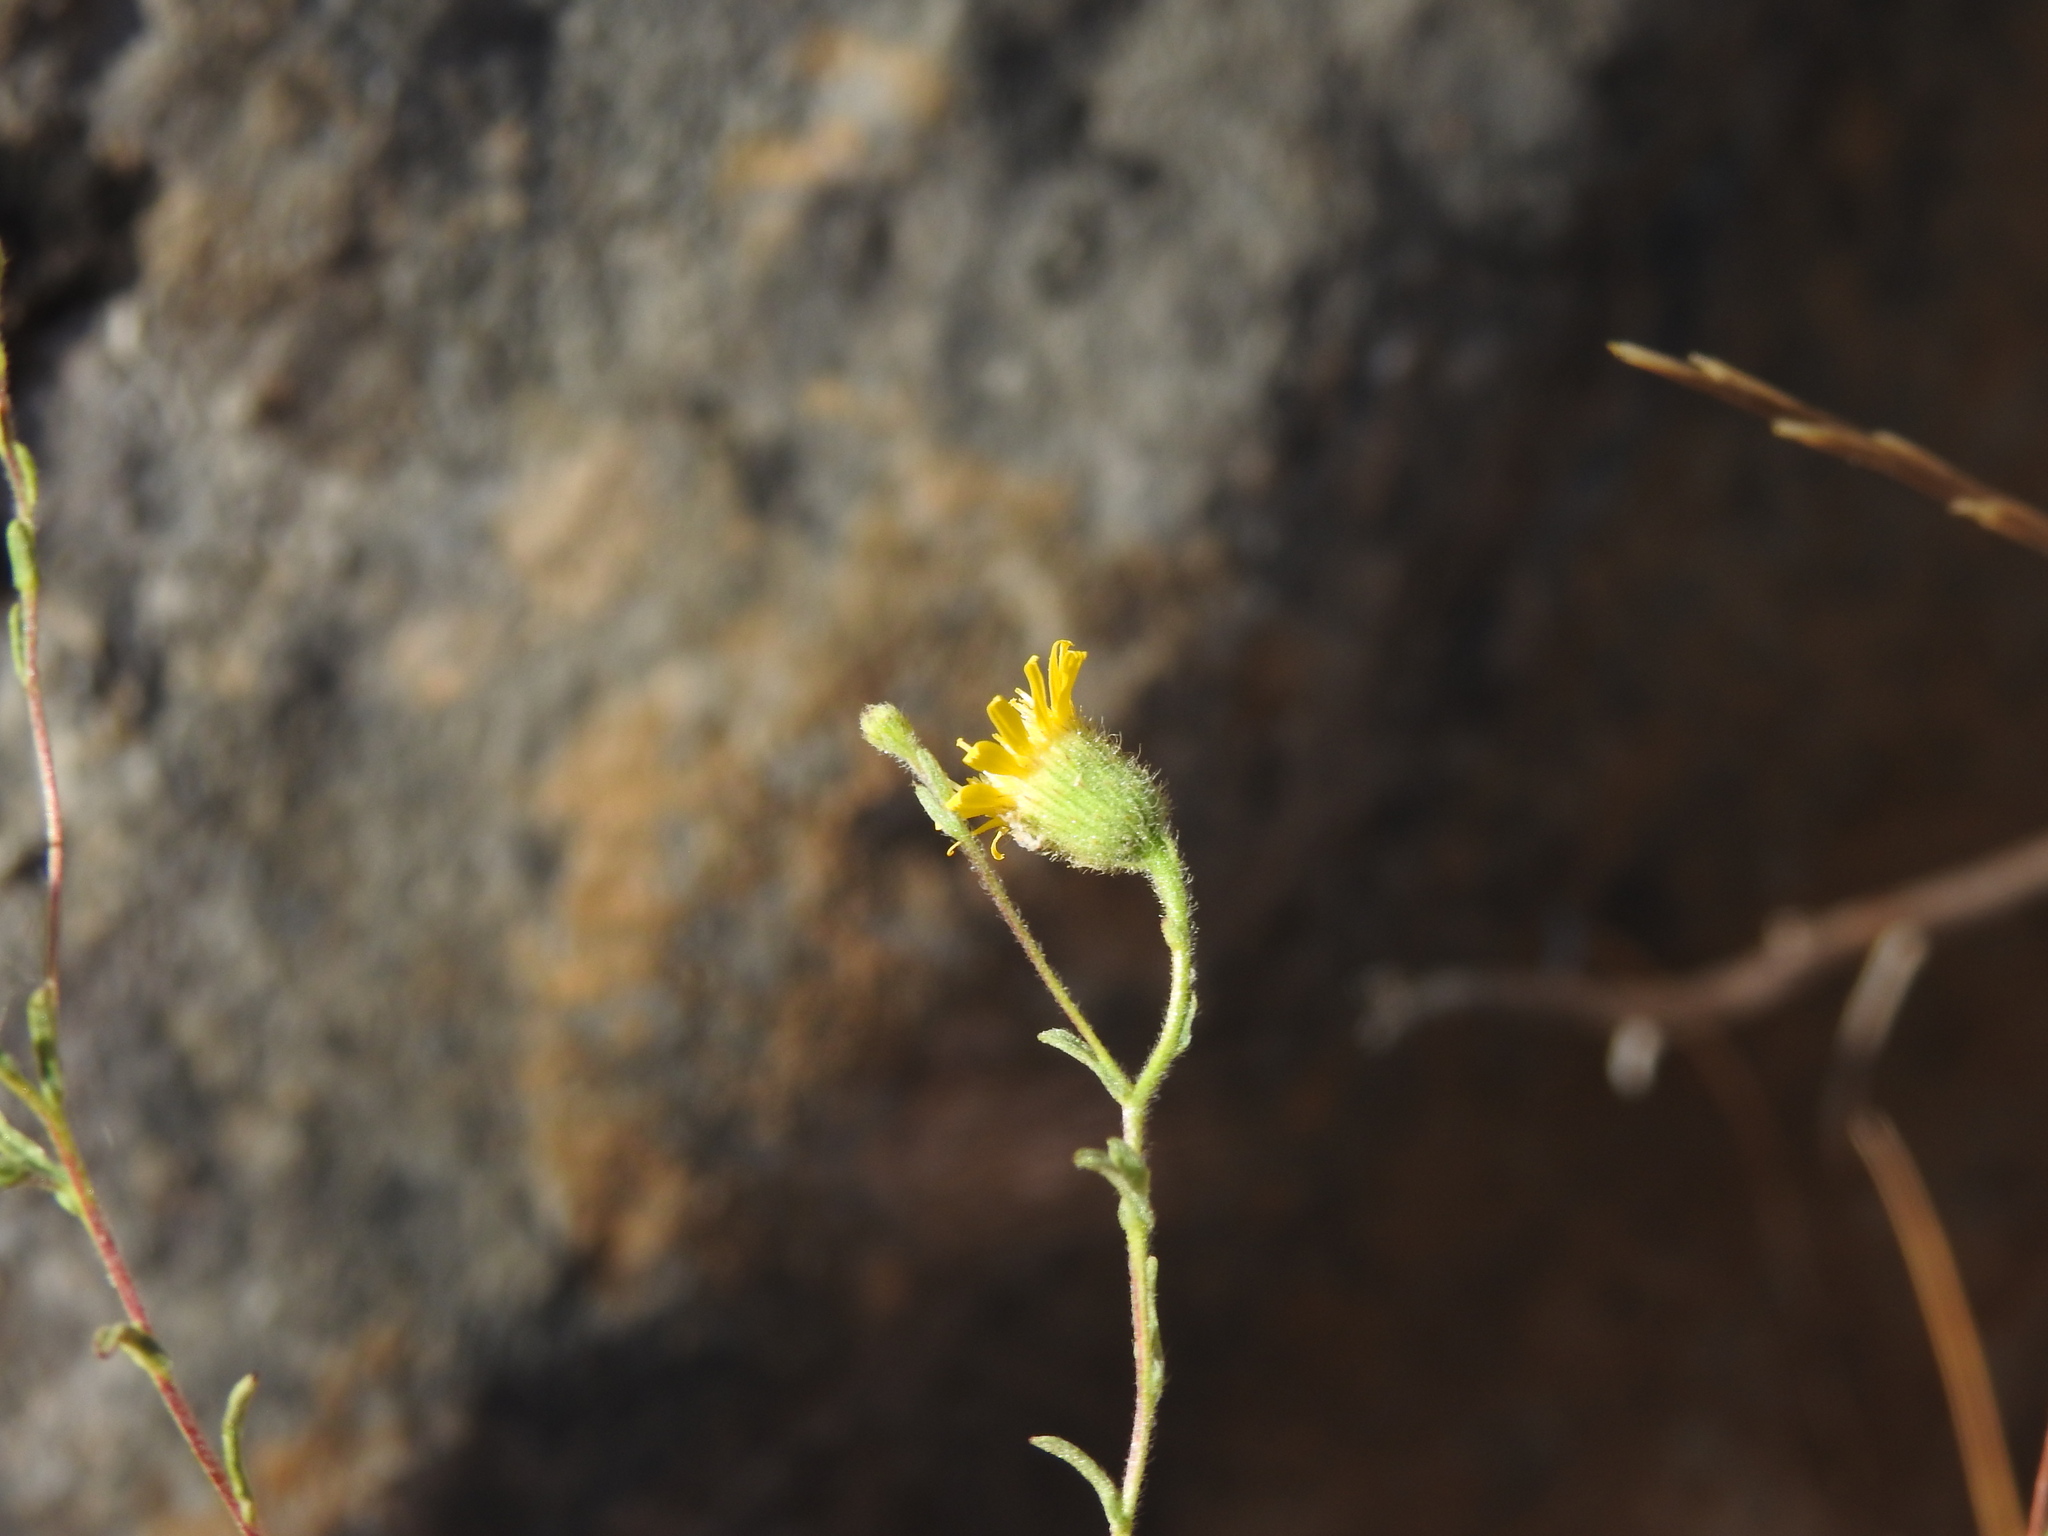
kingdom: Plantae
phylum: Tracheophyta
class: Magnoliopsida
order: Asterales
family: Asteraceae
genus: Pulicaria
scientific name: Pulicaria paludosa
